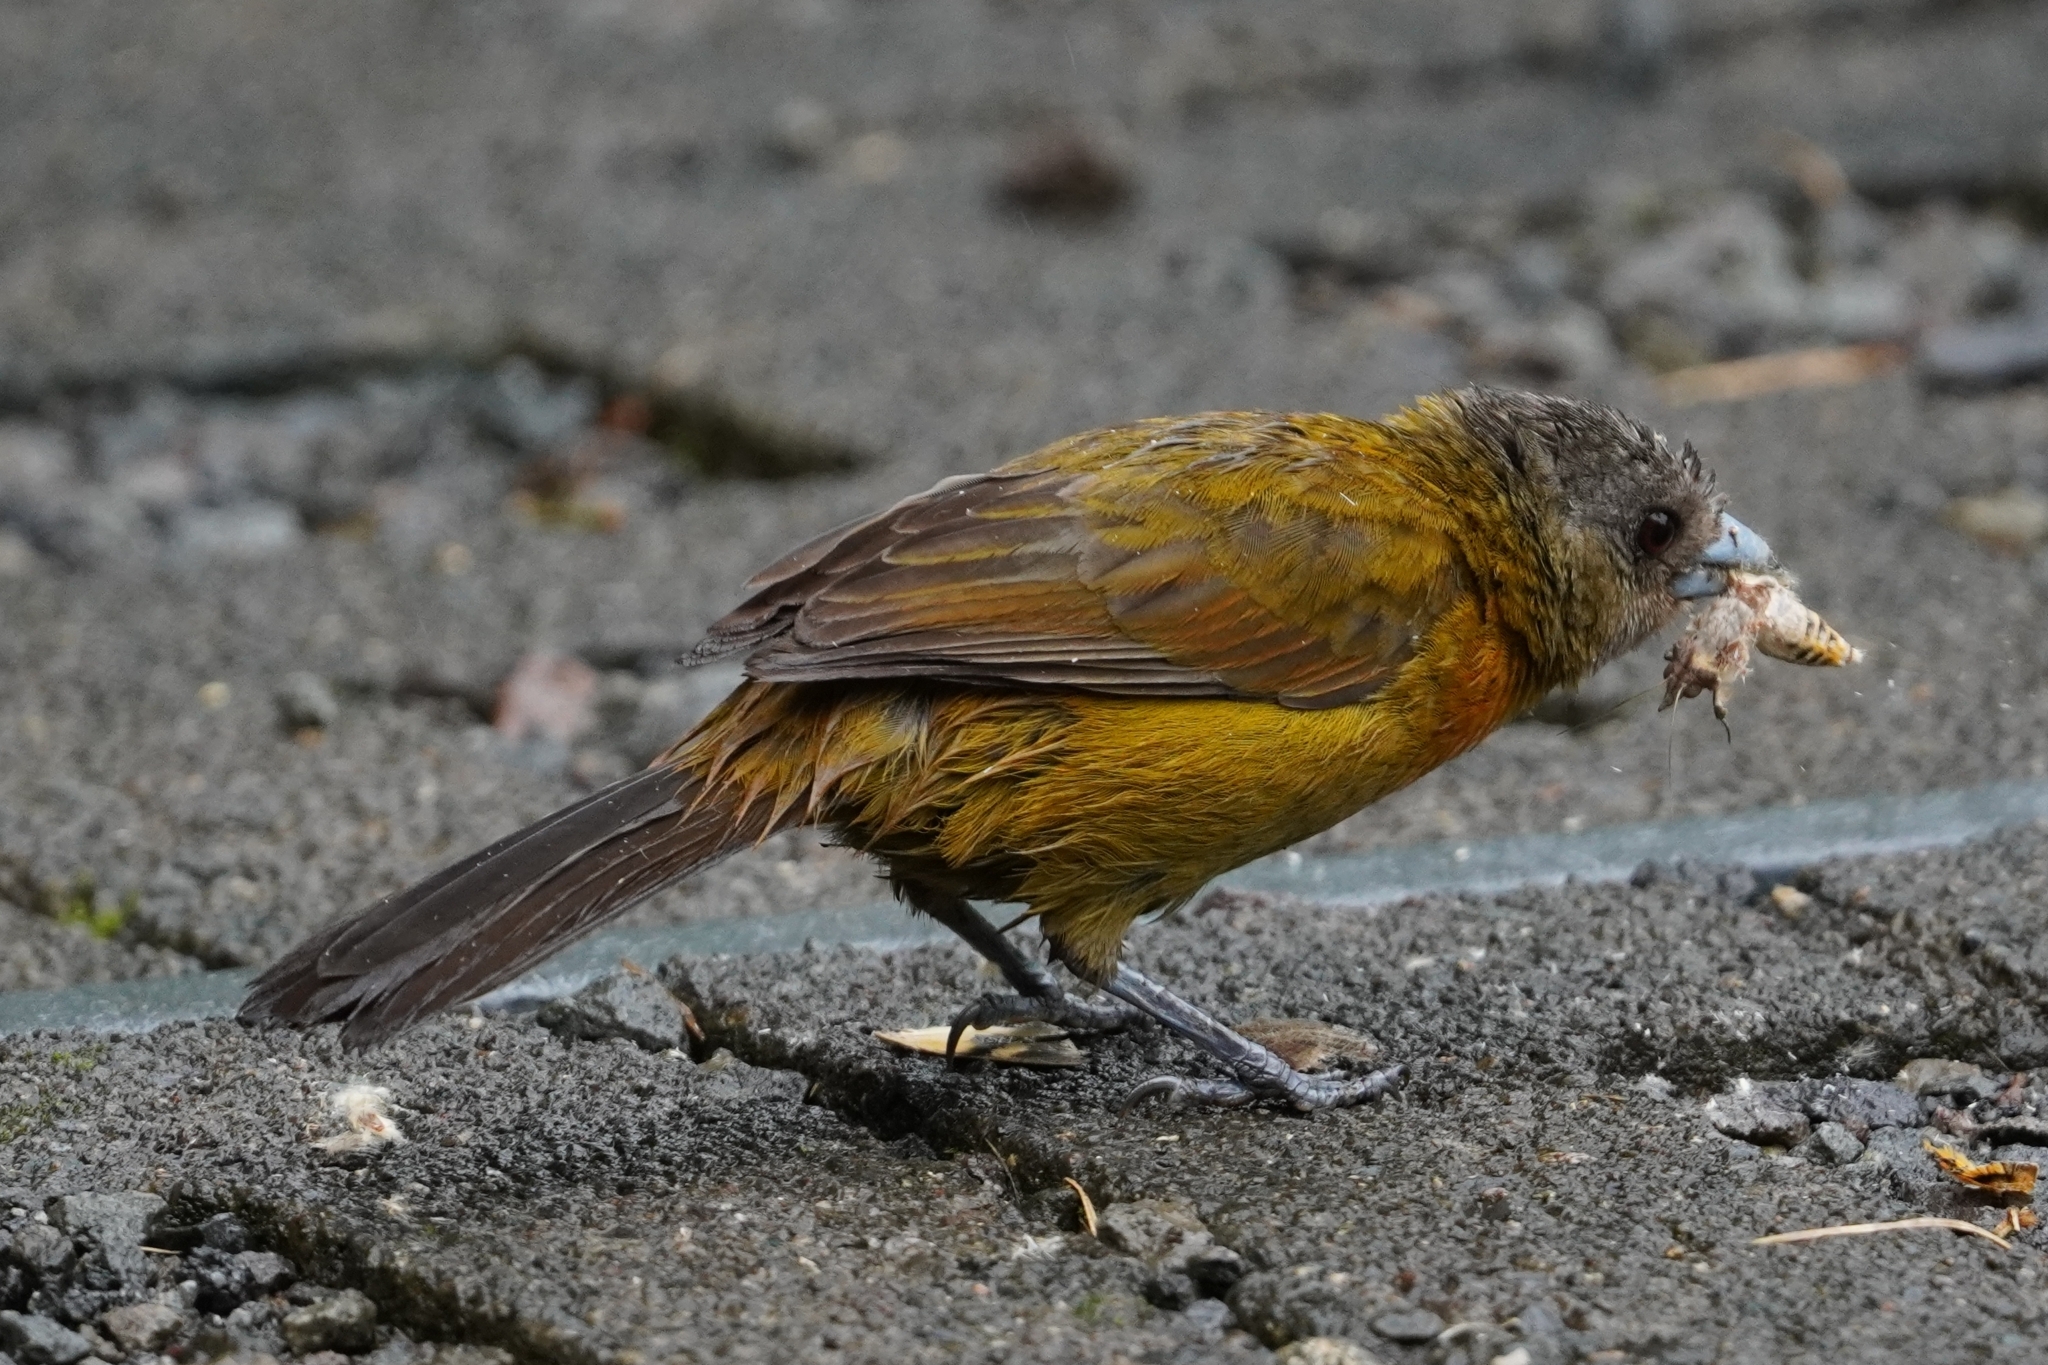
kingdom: Animalia
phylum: Chordata
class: Aves
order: Passeriformes
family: Thraupidae
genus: Ramphocelus
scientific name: Ramphocelus passerinii
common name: Passerini's tanager
